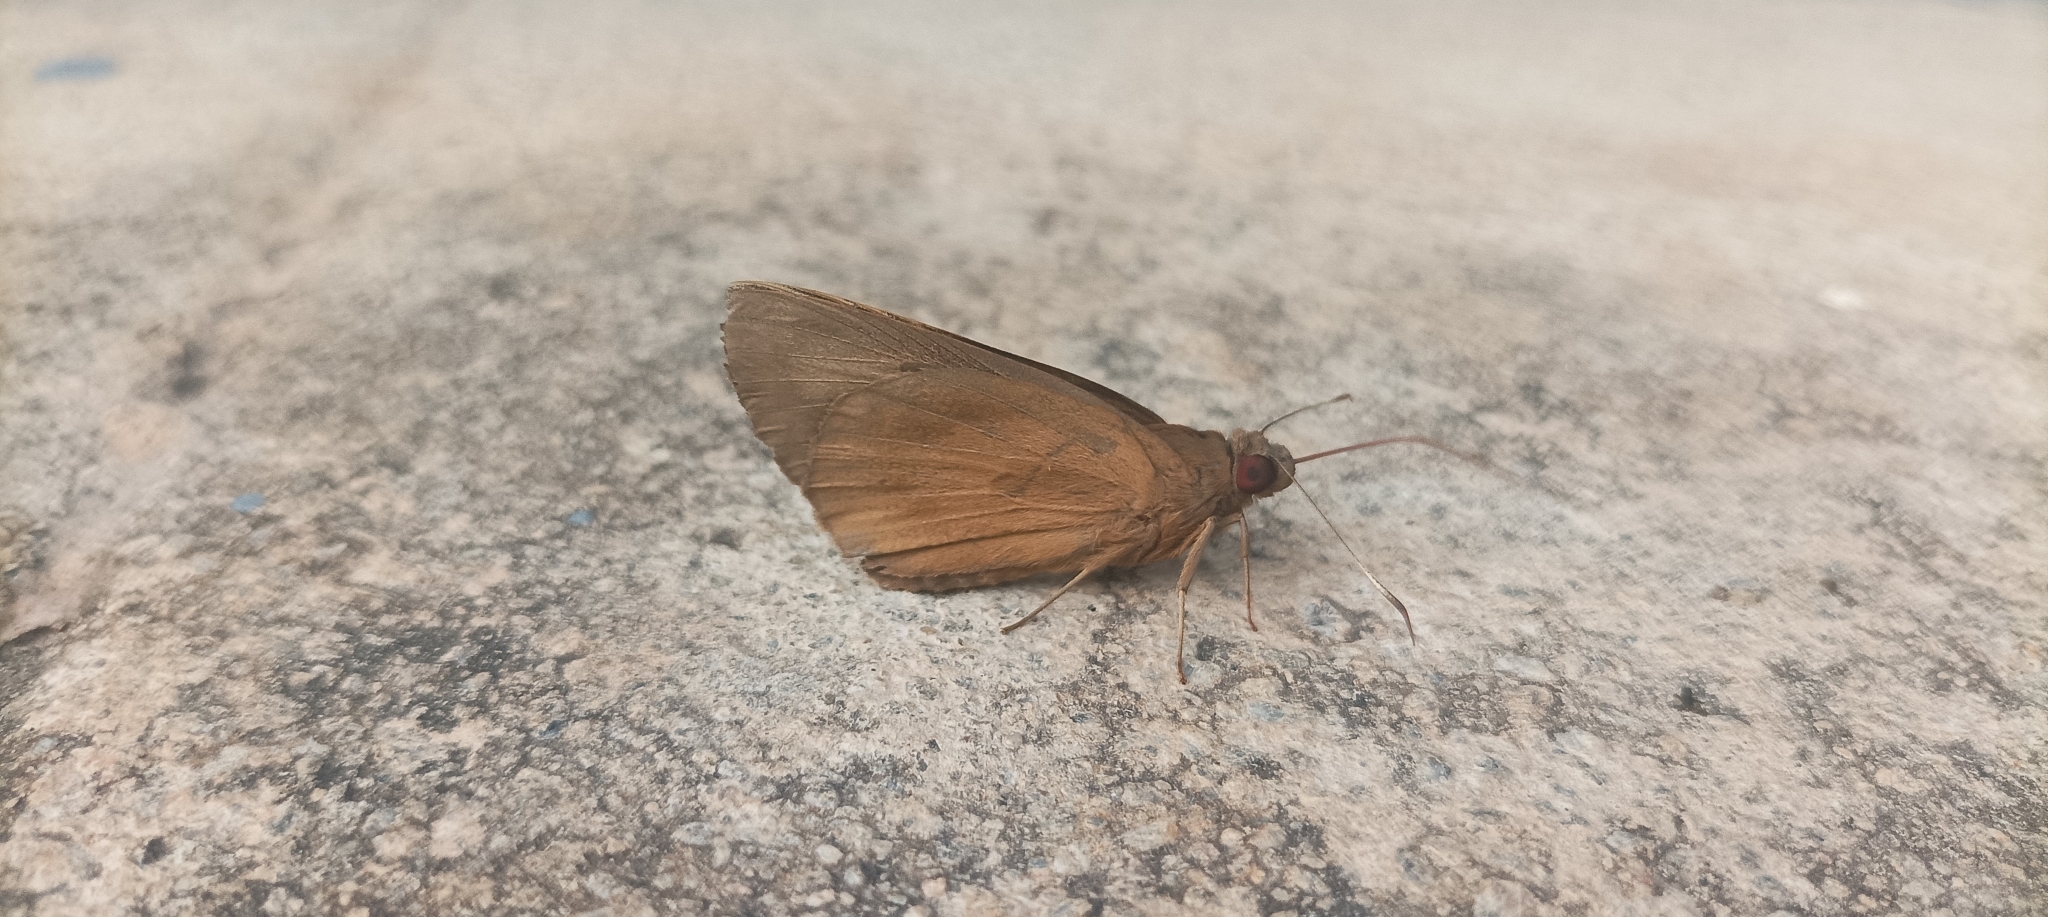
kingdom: Animalia
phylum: Arthropoda
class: Insecta
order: Lepidoptera
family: Hesperiidae
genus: Erionota
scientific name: Erionota torus
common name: Rounded palm-redeye
